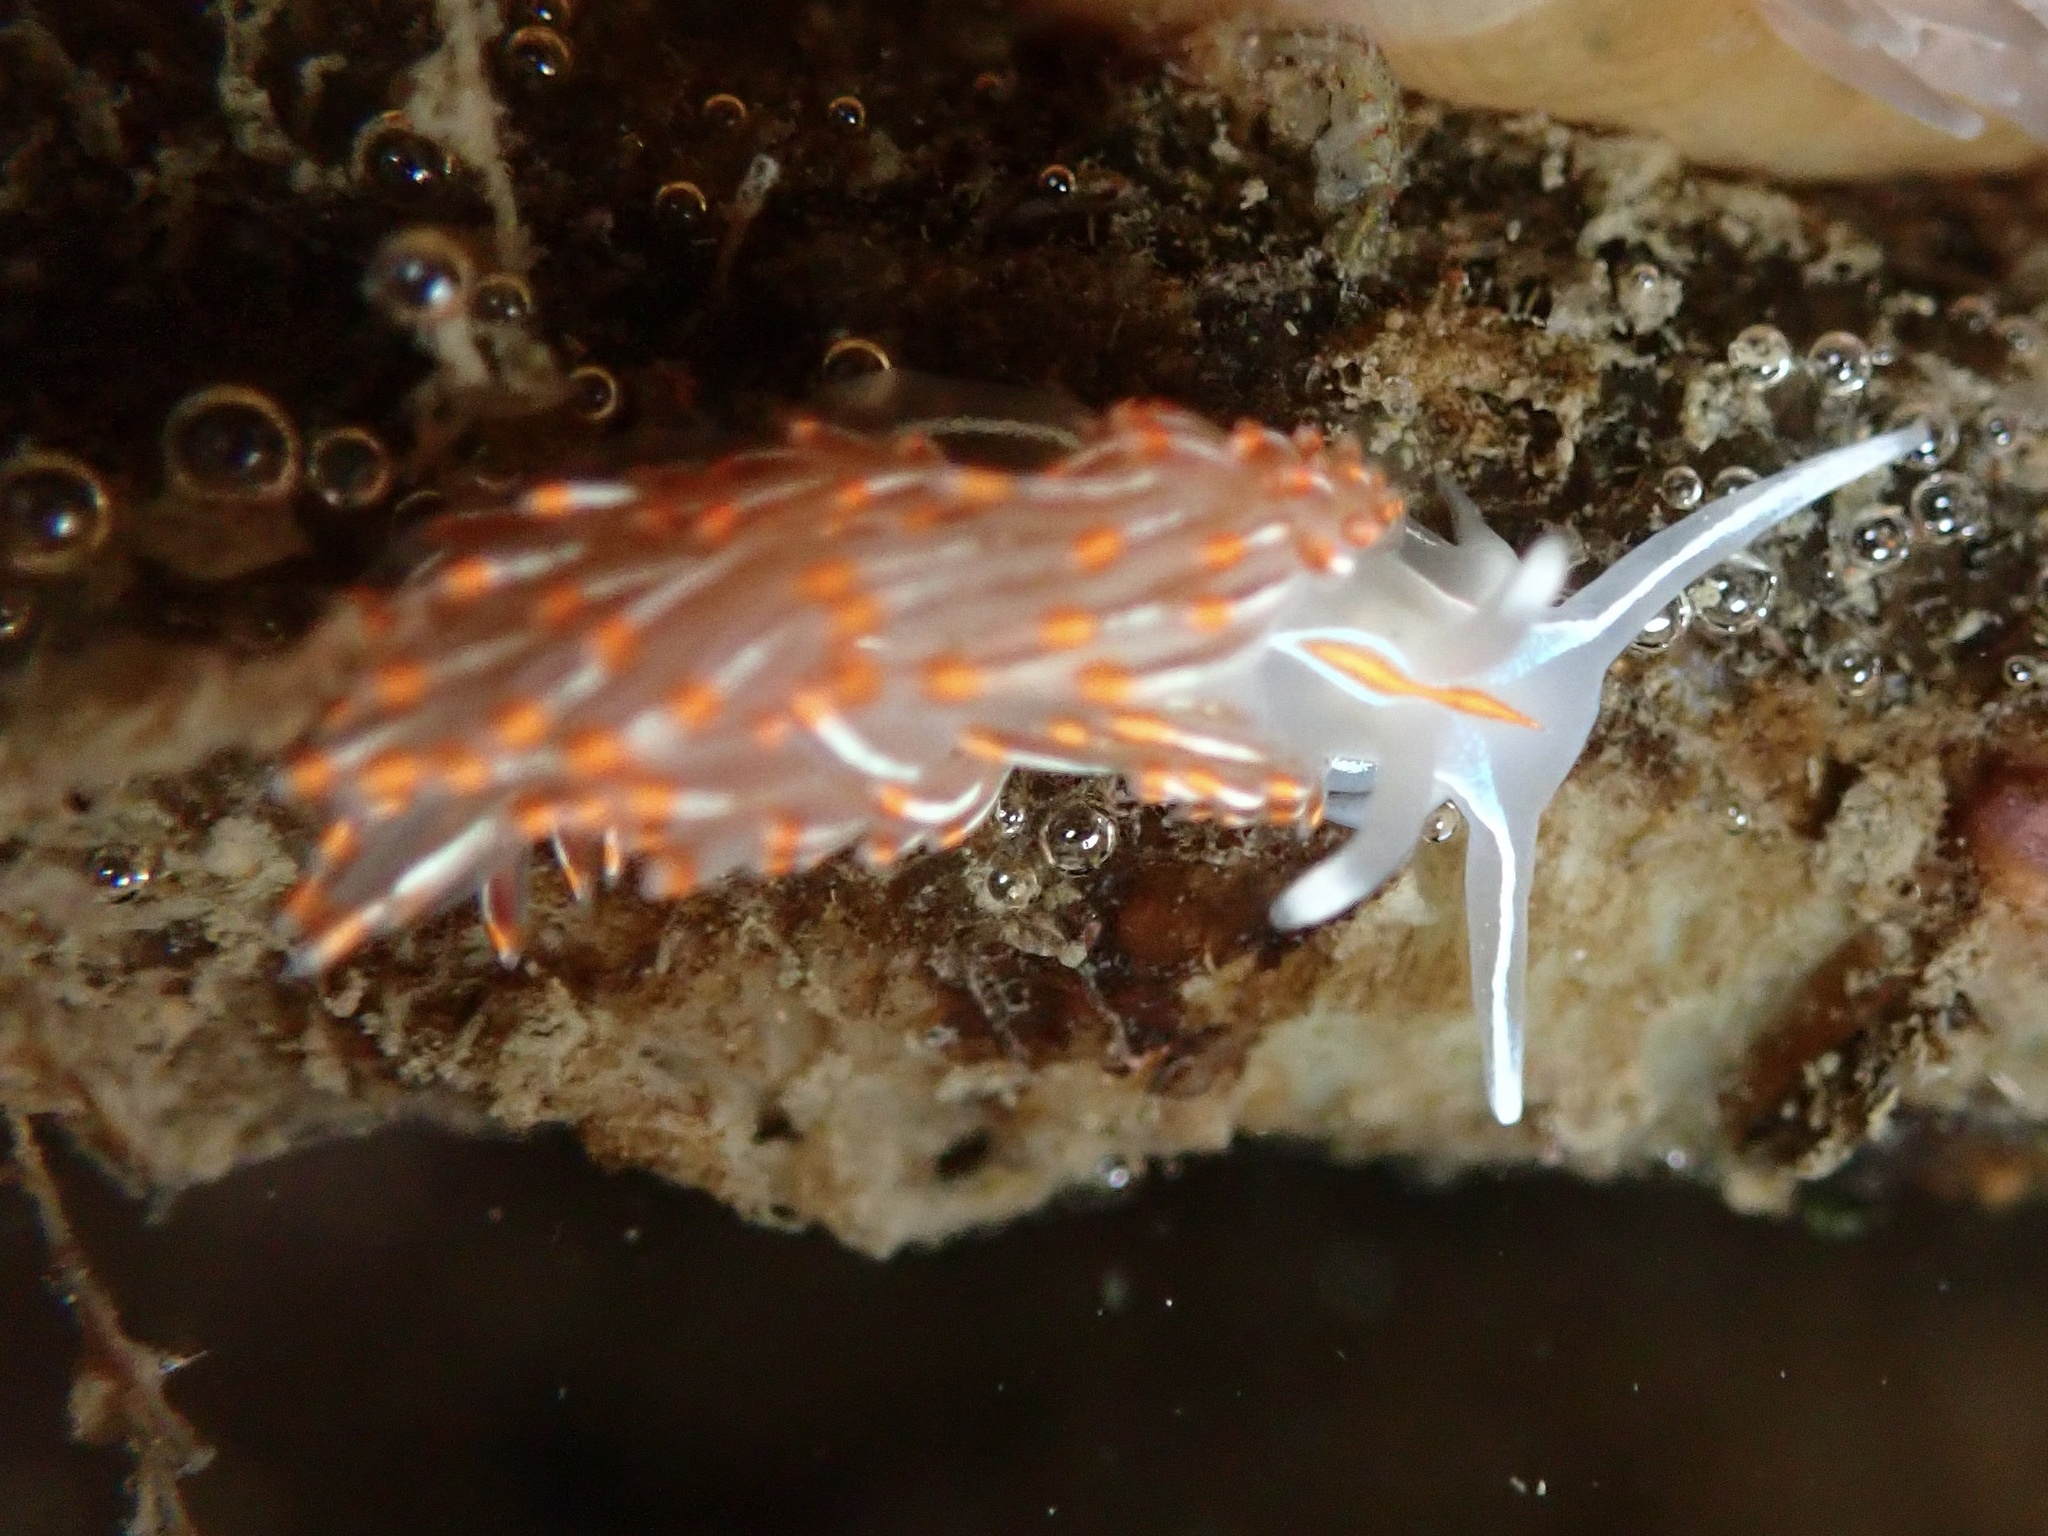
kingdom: Animalia
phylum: Mollusca
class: Gastropoda
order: Nudibranchia
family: Myrrhinidae
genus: Hermissenda
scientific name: Hermissenda crassicornis
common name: Hermissenda
